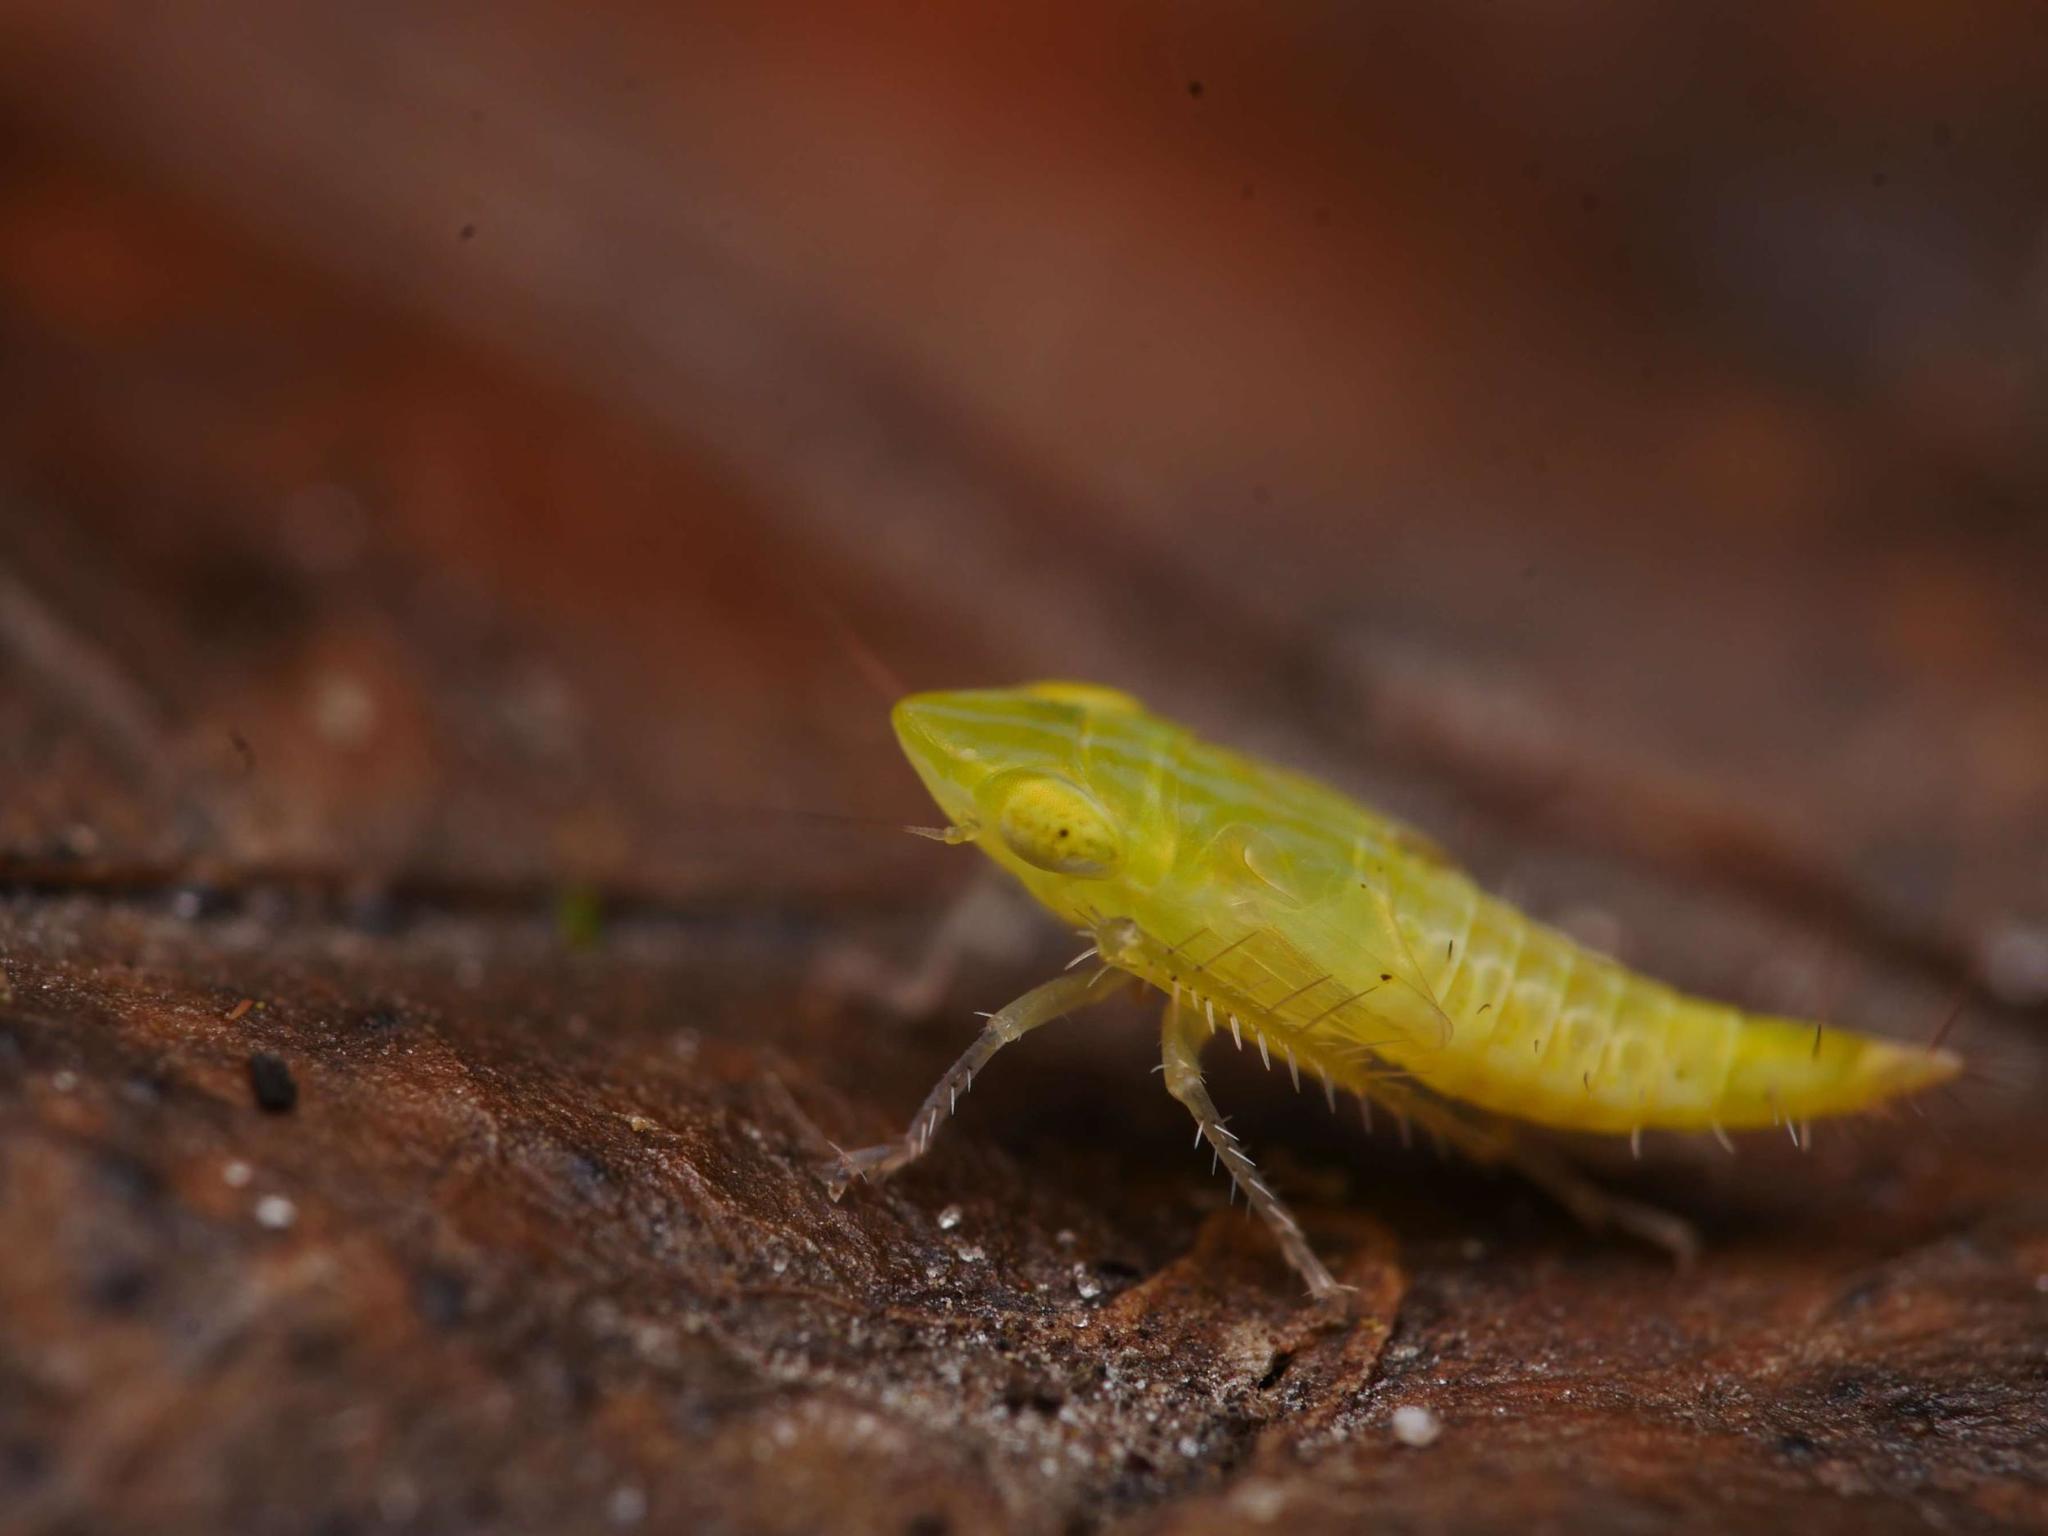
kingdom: Animalia
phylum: Arthropoda
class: Insecta
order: Hemiptera
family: Cicadellidae
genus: Synophropsis
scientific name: Synophropsis lauri
